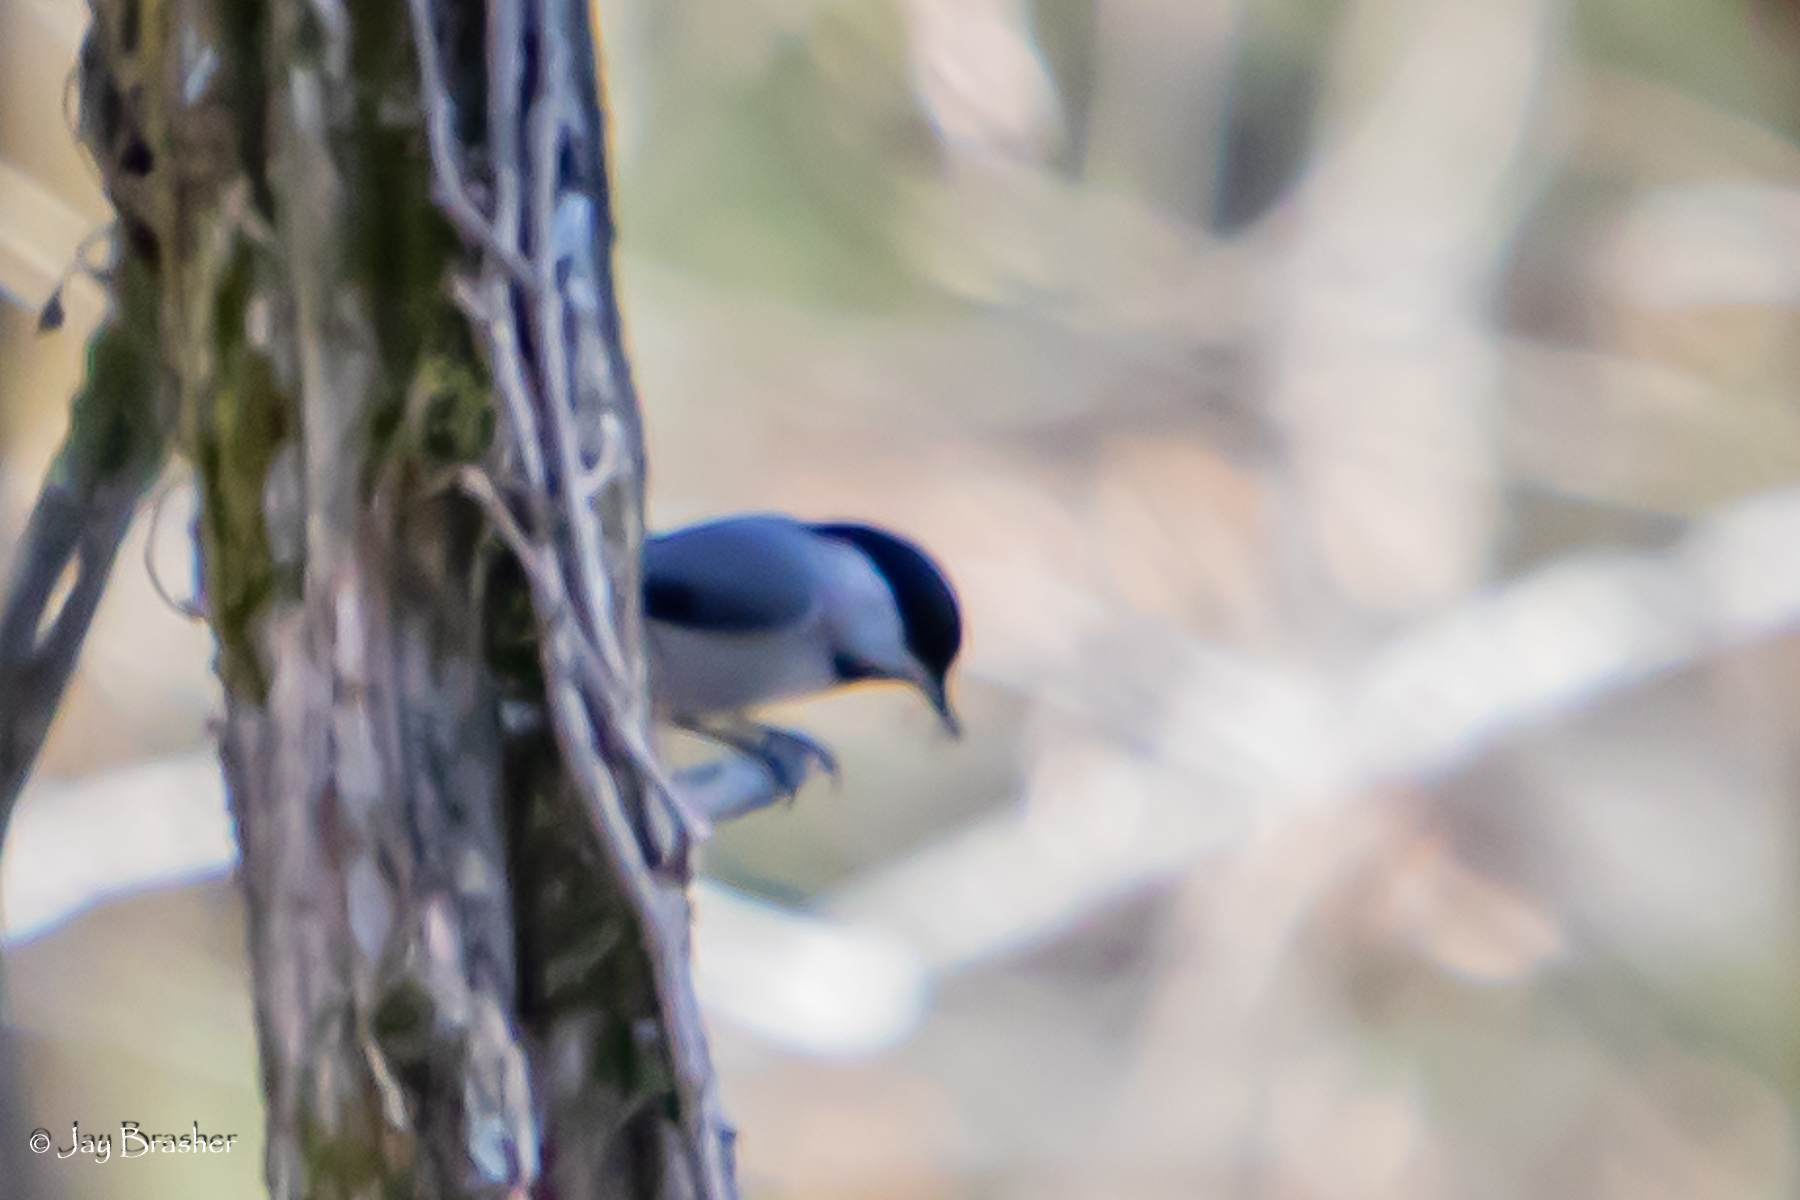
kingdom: Animalia
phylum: Chordata
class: Aves
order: Passeriformes
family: Paridae
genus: Poecile
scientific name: Poecile carolinensis
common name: Carolina chickadee
